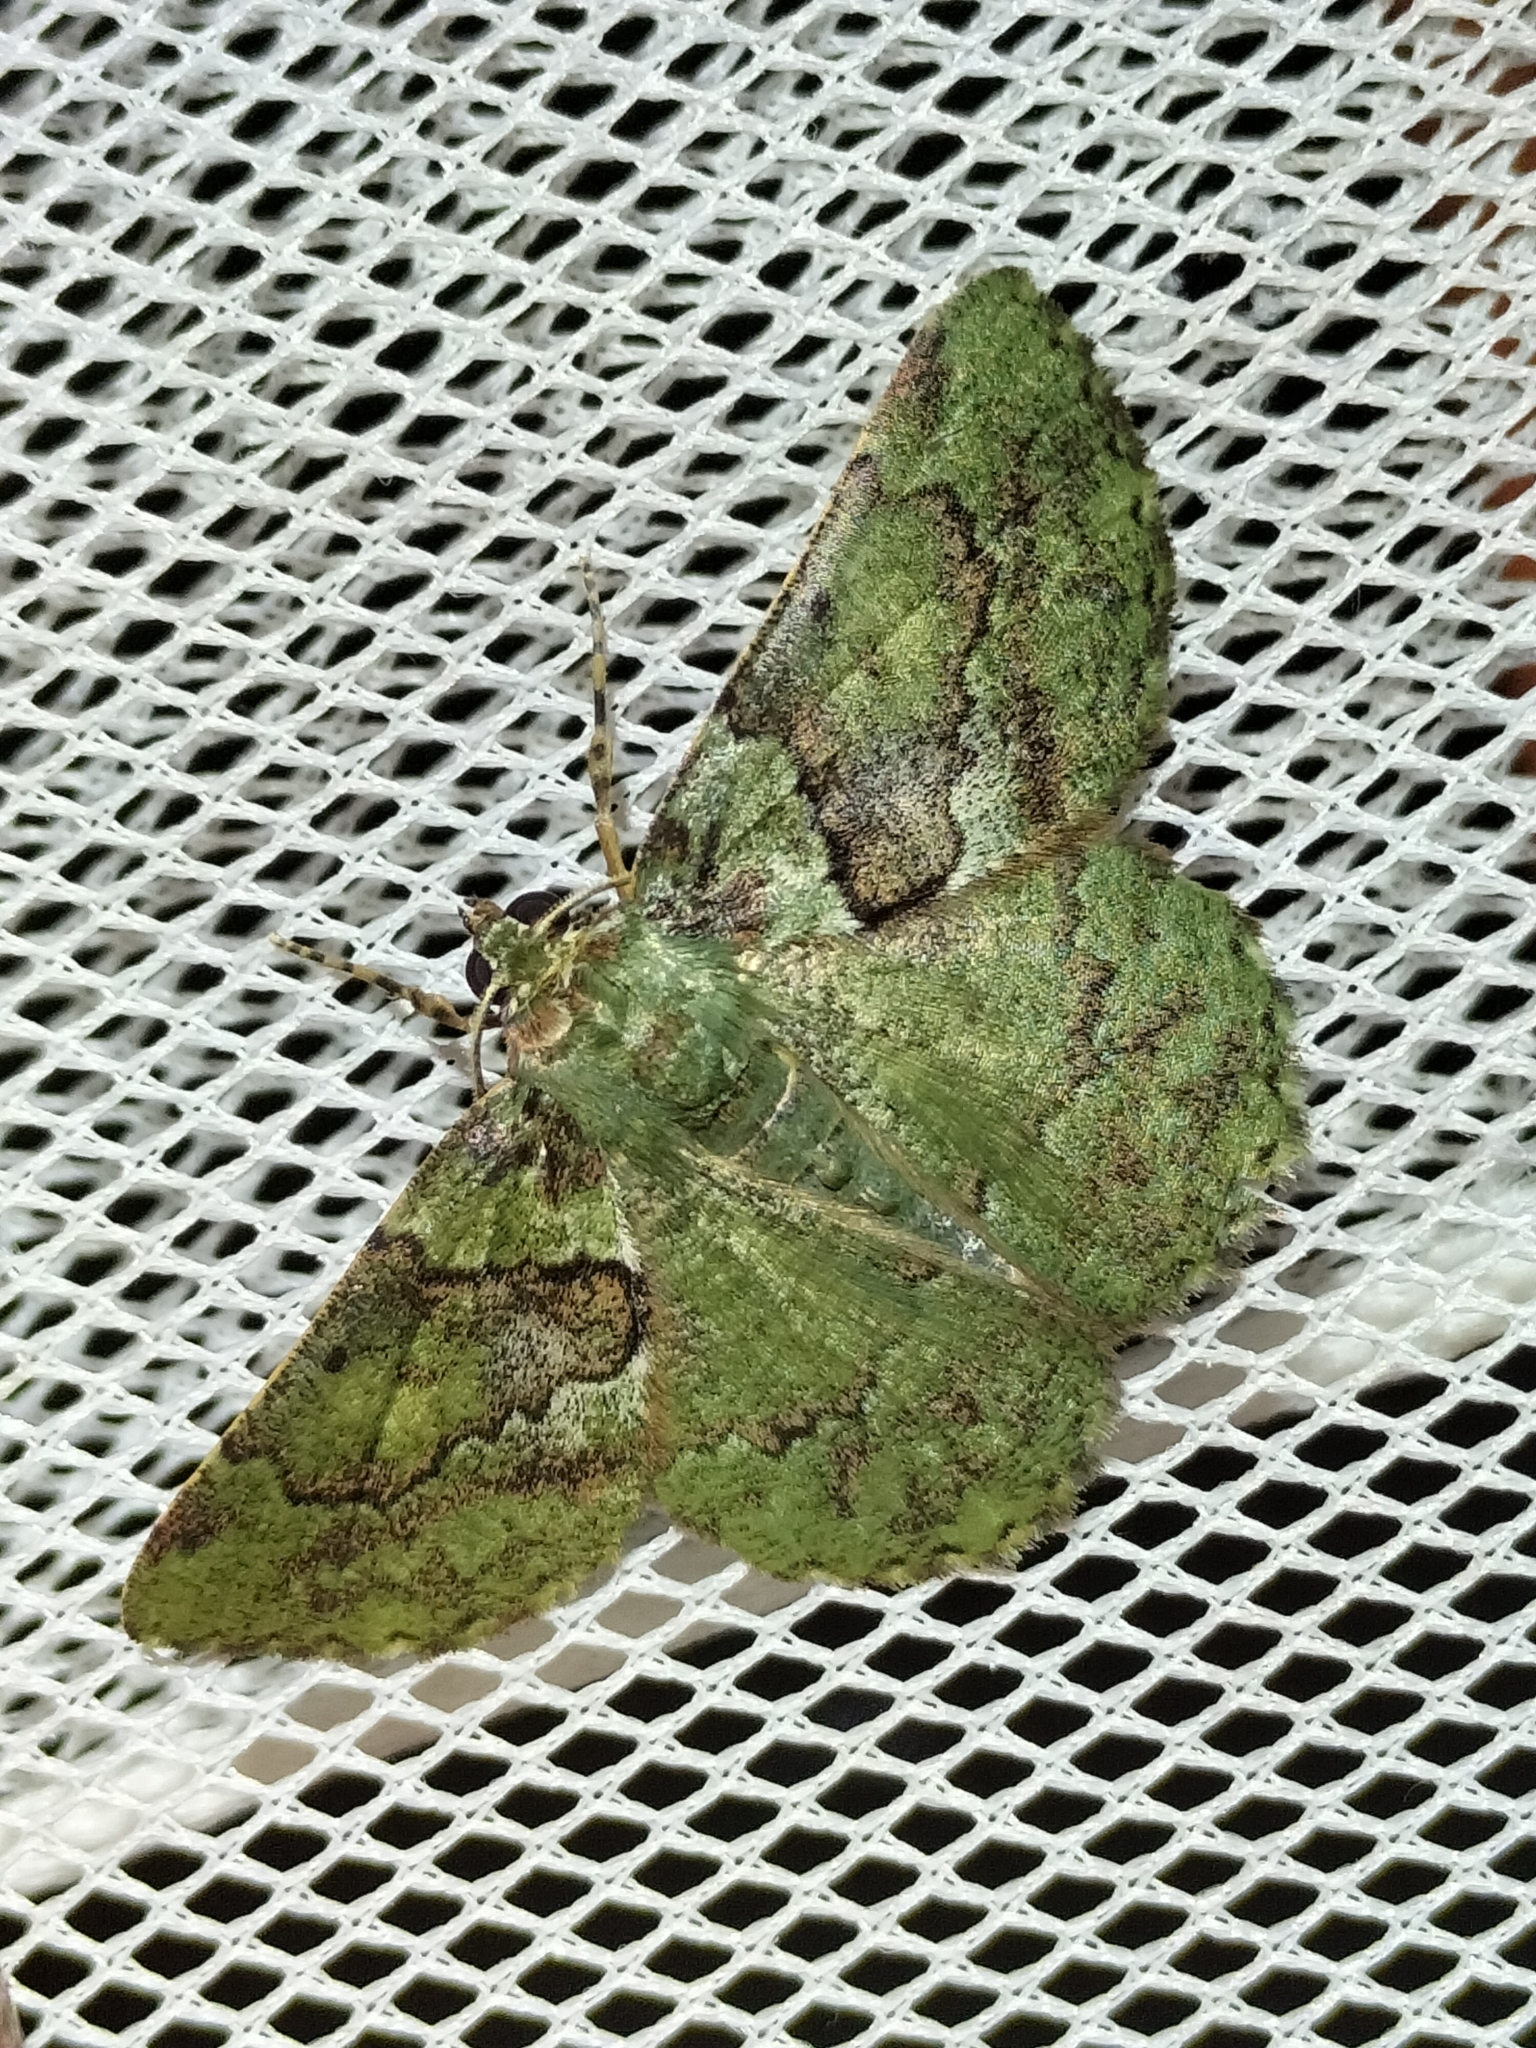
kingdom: Animalia
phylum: Arthropoda
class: Insecta
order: Lepidoptera
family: Geometridae
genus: Aeolochroma
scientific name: Aeolochroma turneri
